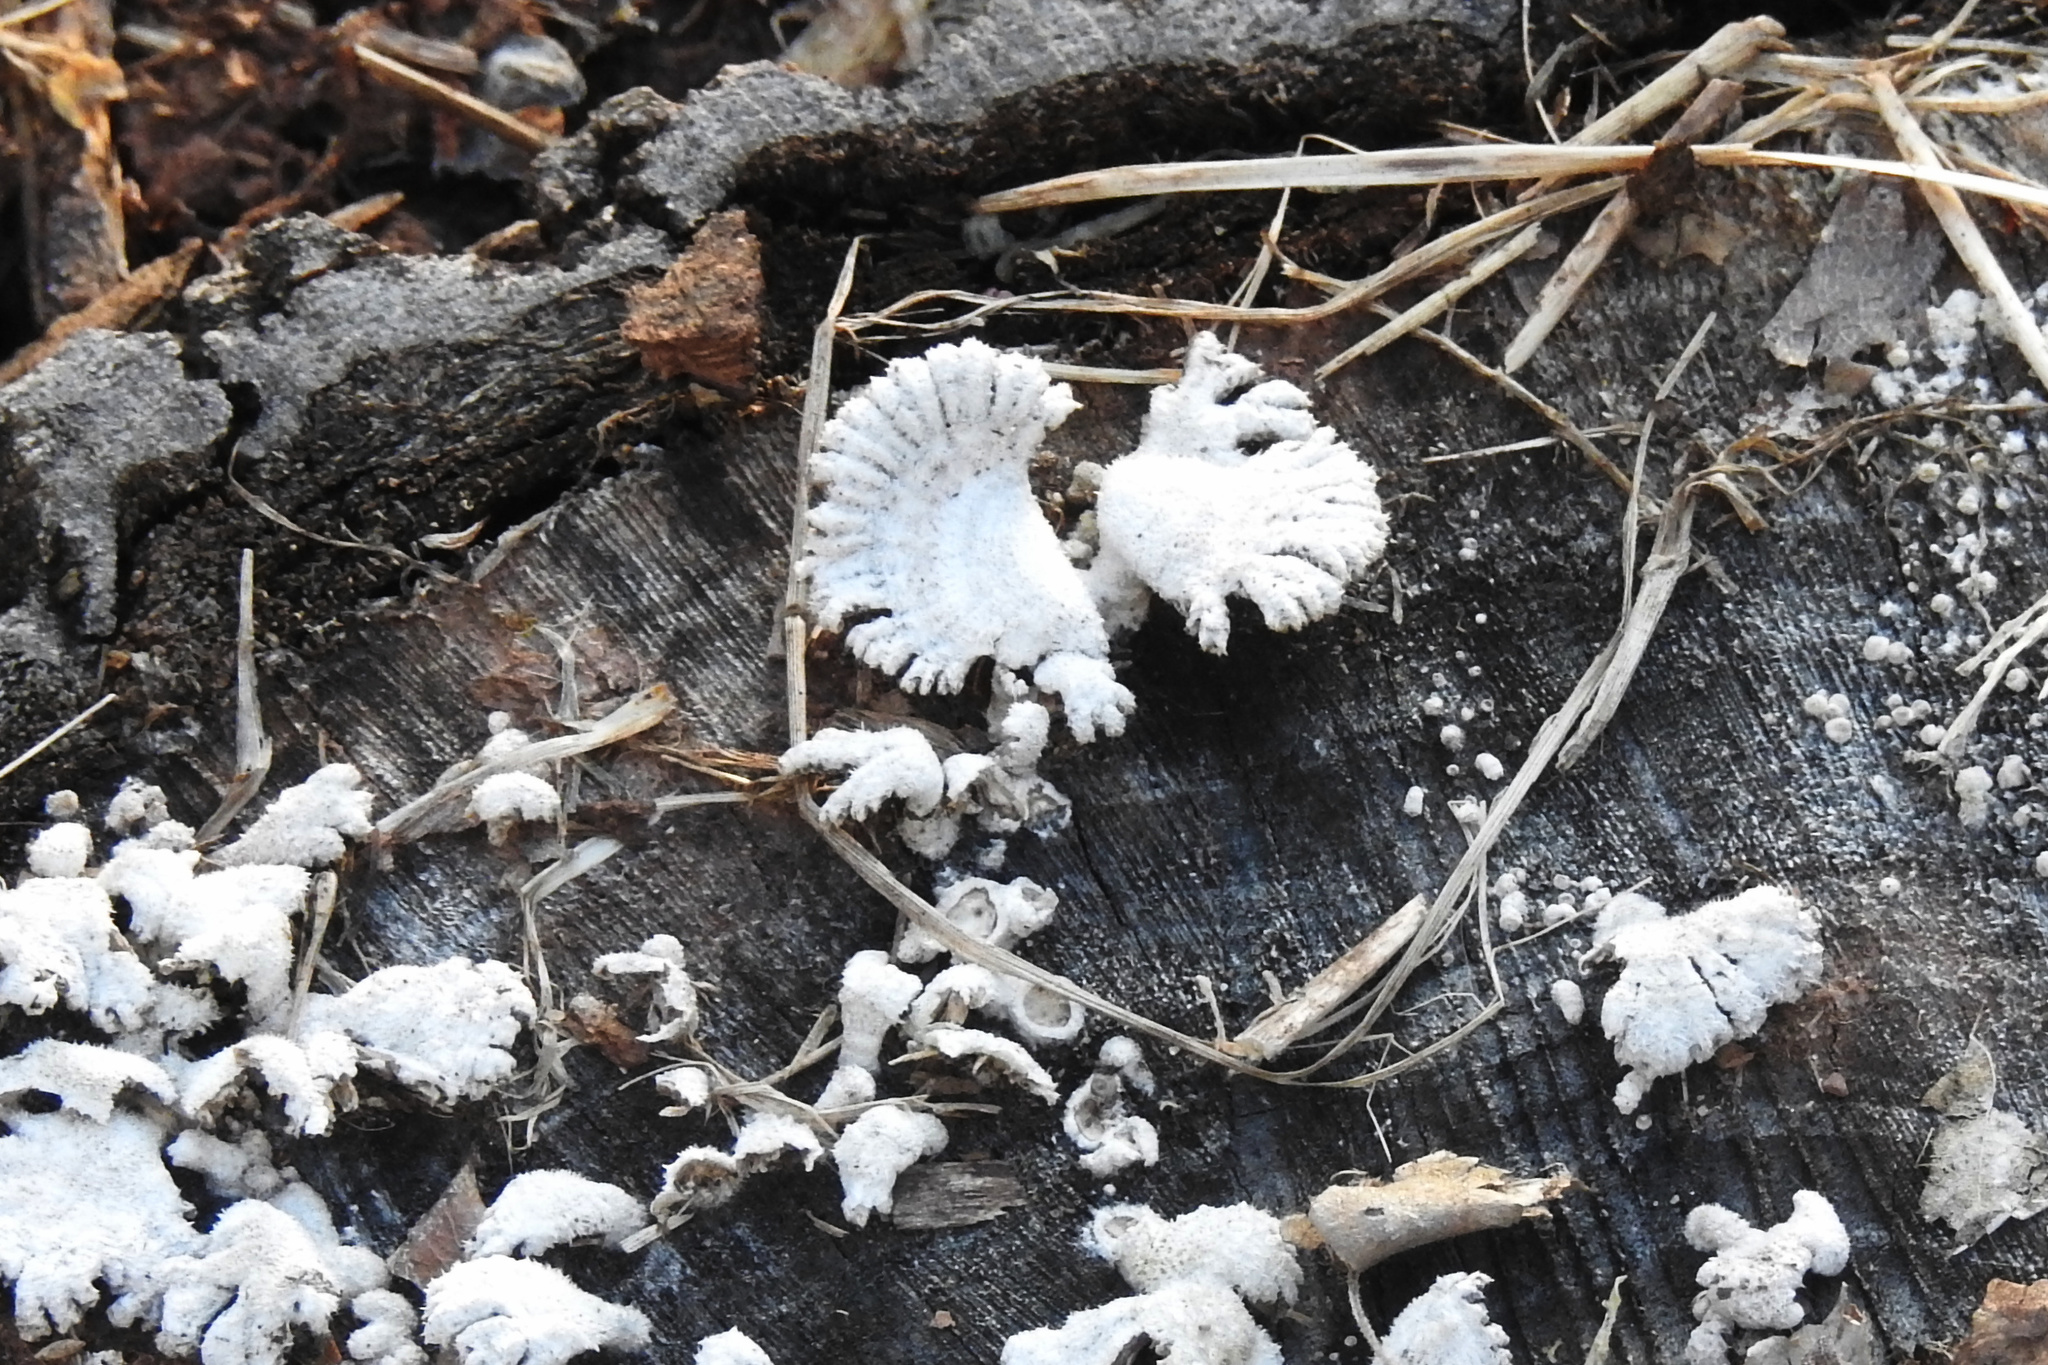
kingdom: Fungi
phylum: Basidiomycota
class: Agaricomycetes
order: Agaricales
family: Schizophyllaceae
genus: Schizophyllum
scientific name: Schizophyllum commune
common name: Common porecrust
